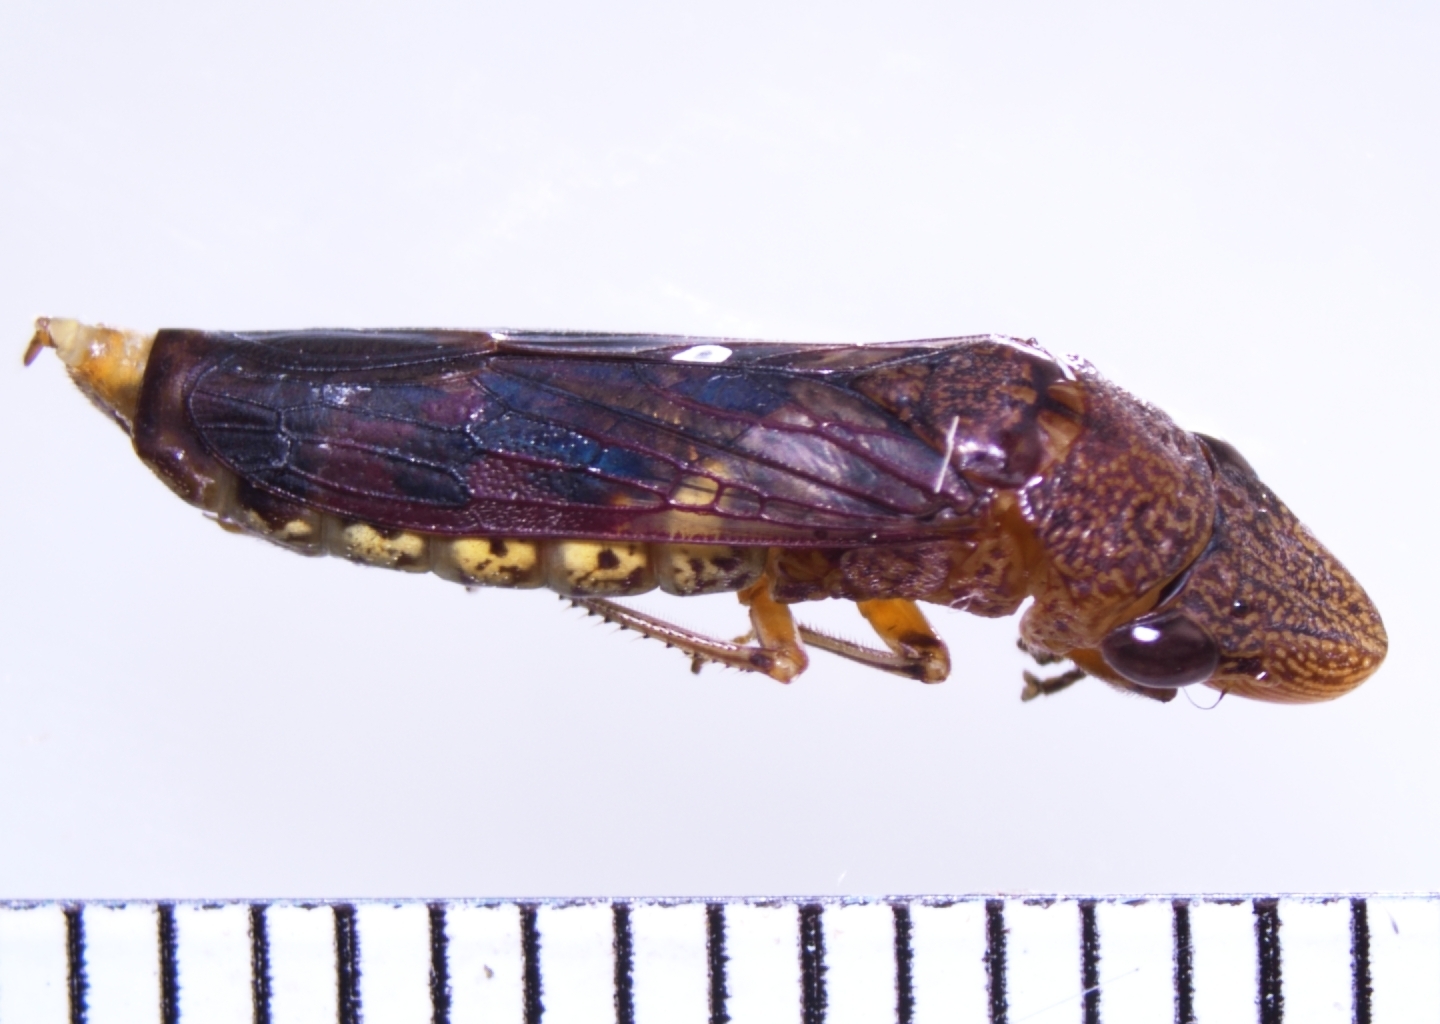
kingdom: Animalia
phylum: Arthropoda
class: Insecta
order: Hemiptera
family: Cicadellidae
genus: Homalodisca
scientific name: Homalodisca vitripennis
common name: Glassy-winged sharpshooter
